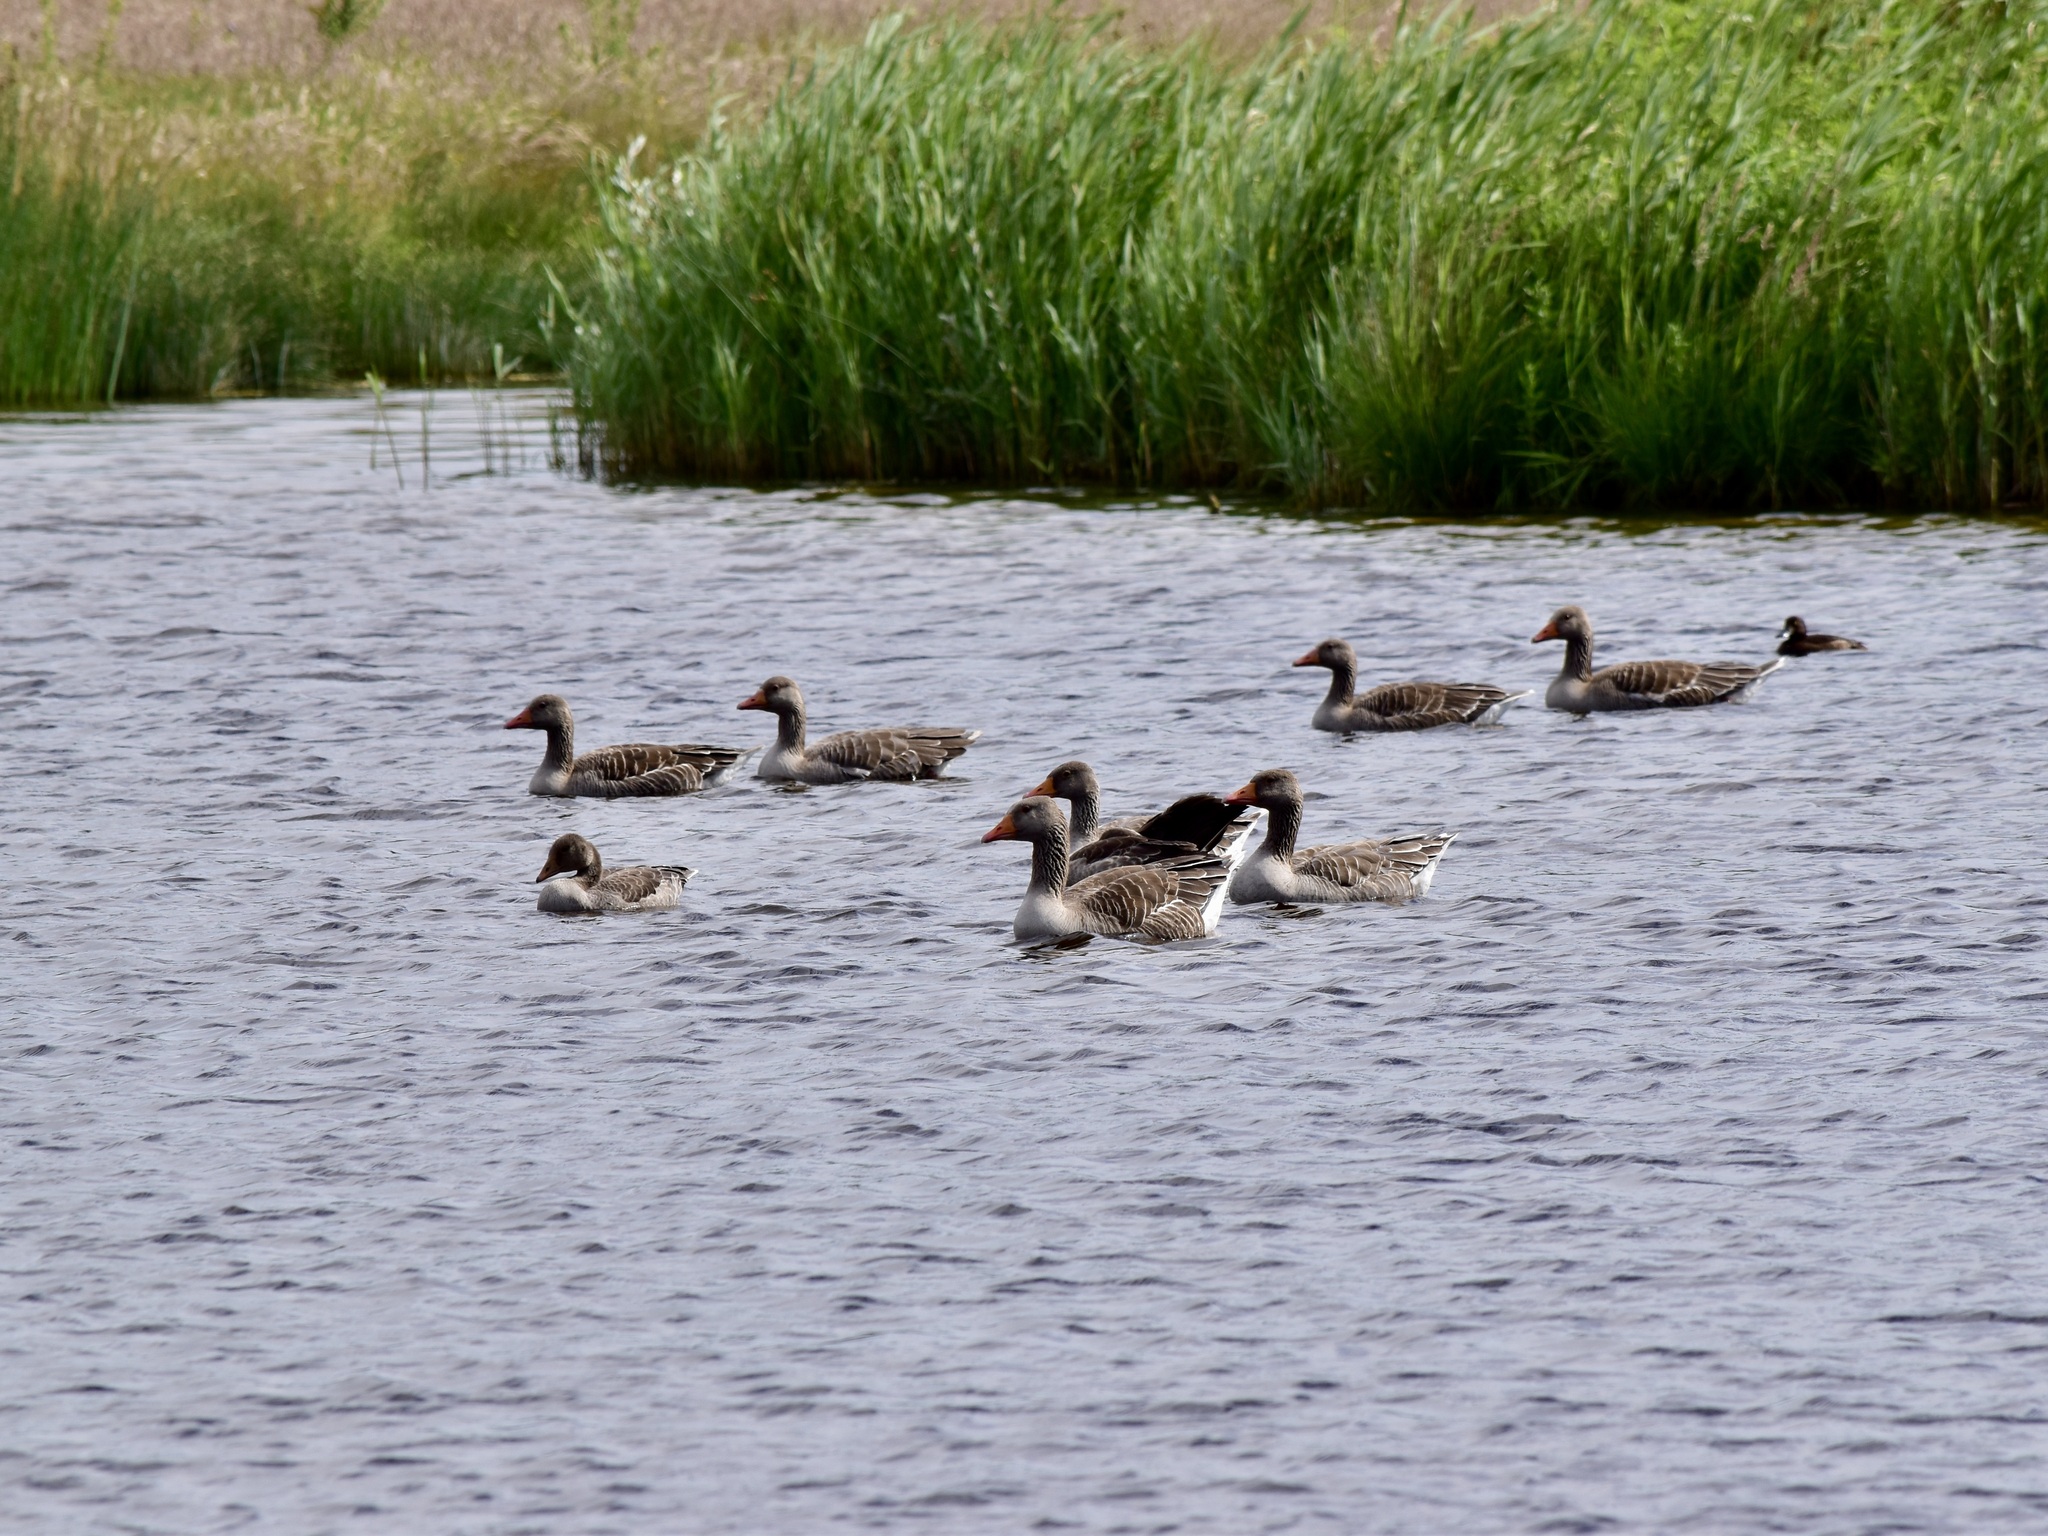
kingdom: Animalia
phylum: Chordata
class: Aves
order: Anseriformes
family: Anatidae
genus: Anser
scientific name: Anser anser
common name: Greylag goose
